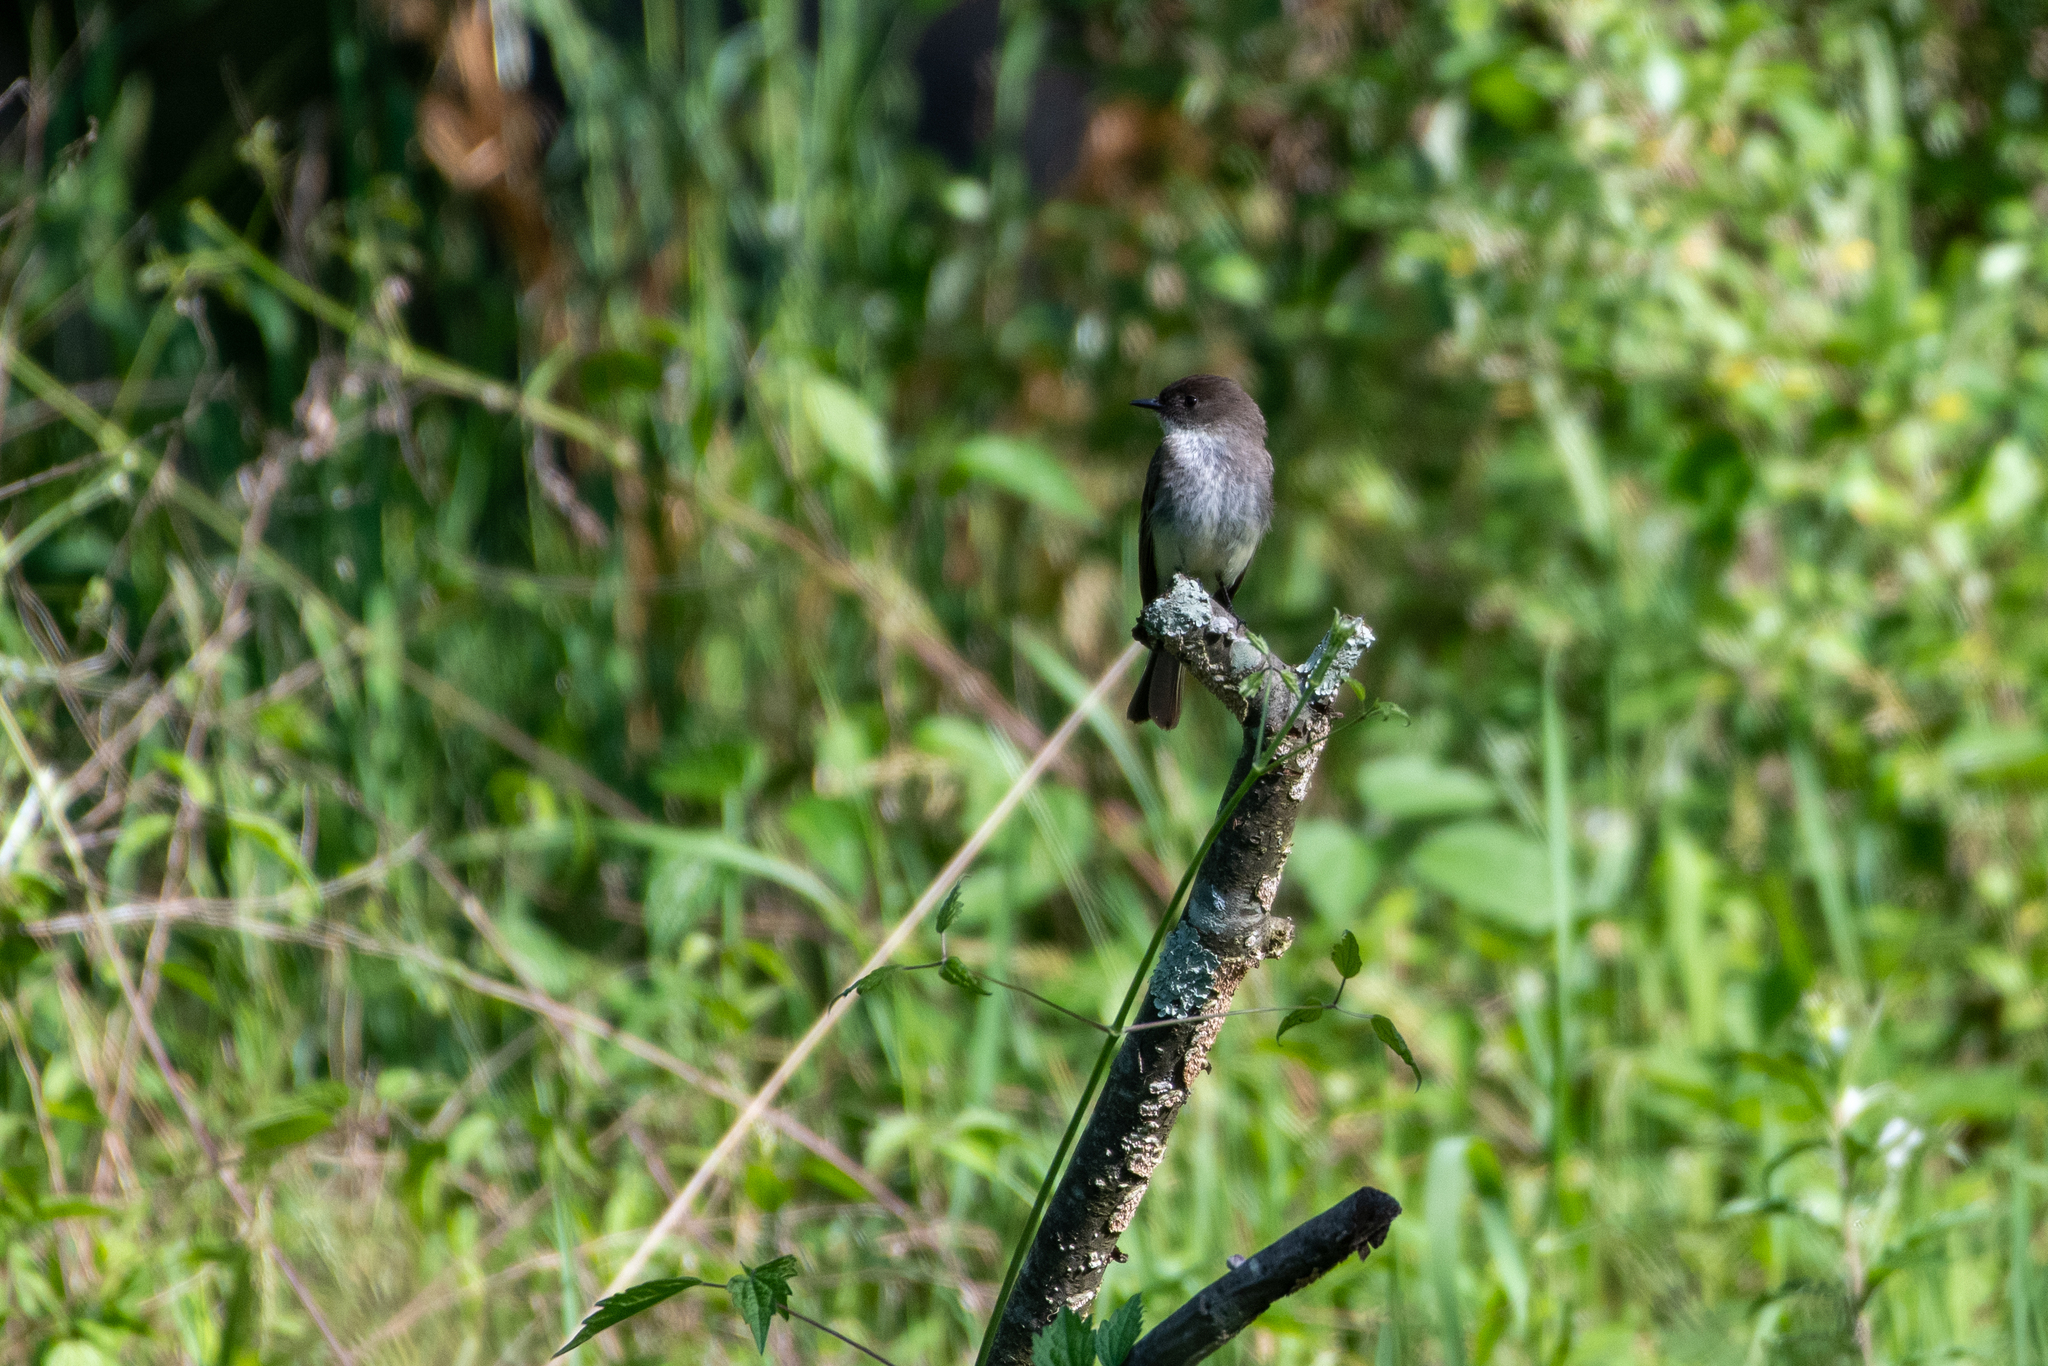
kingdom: Animalia
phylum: Chordata
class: Aves
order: Passeriformes
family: Tyrannidae
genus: Sayornis
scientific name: Sayornis phoebe
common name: Eastern phoebe
